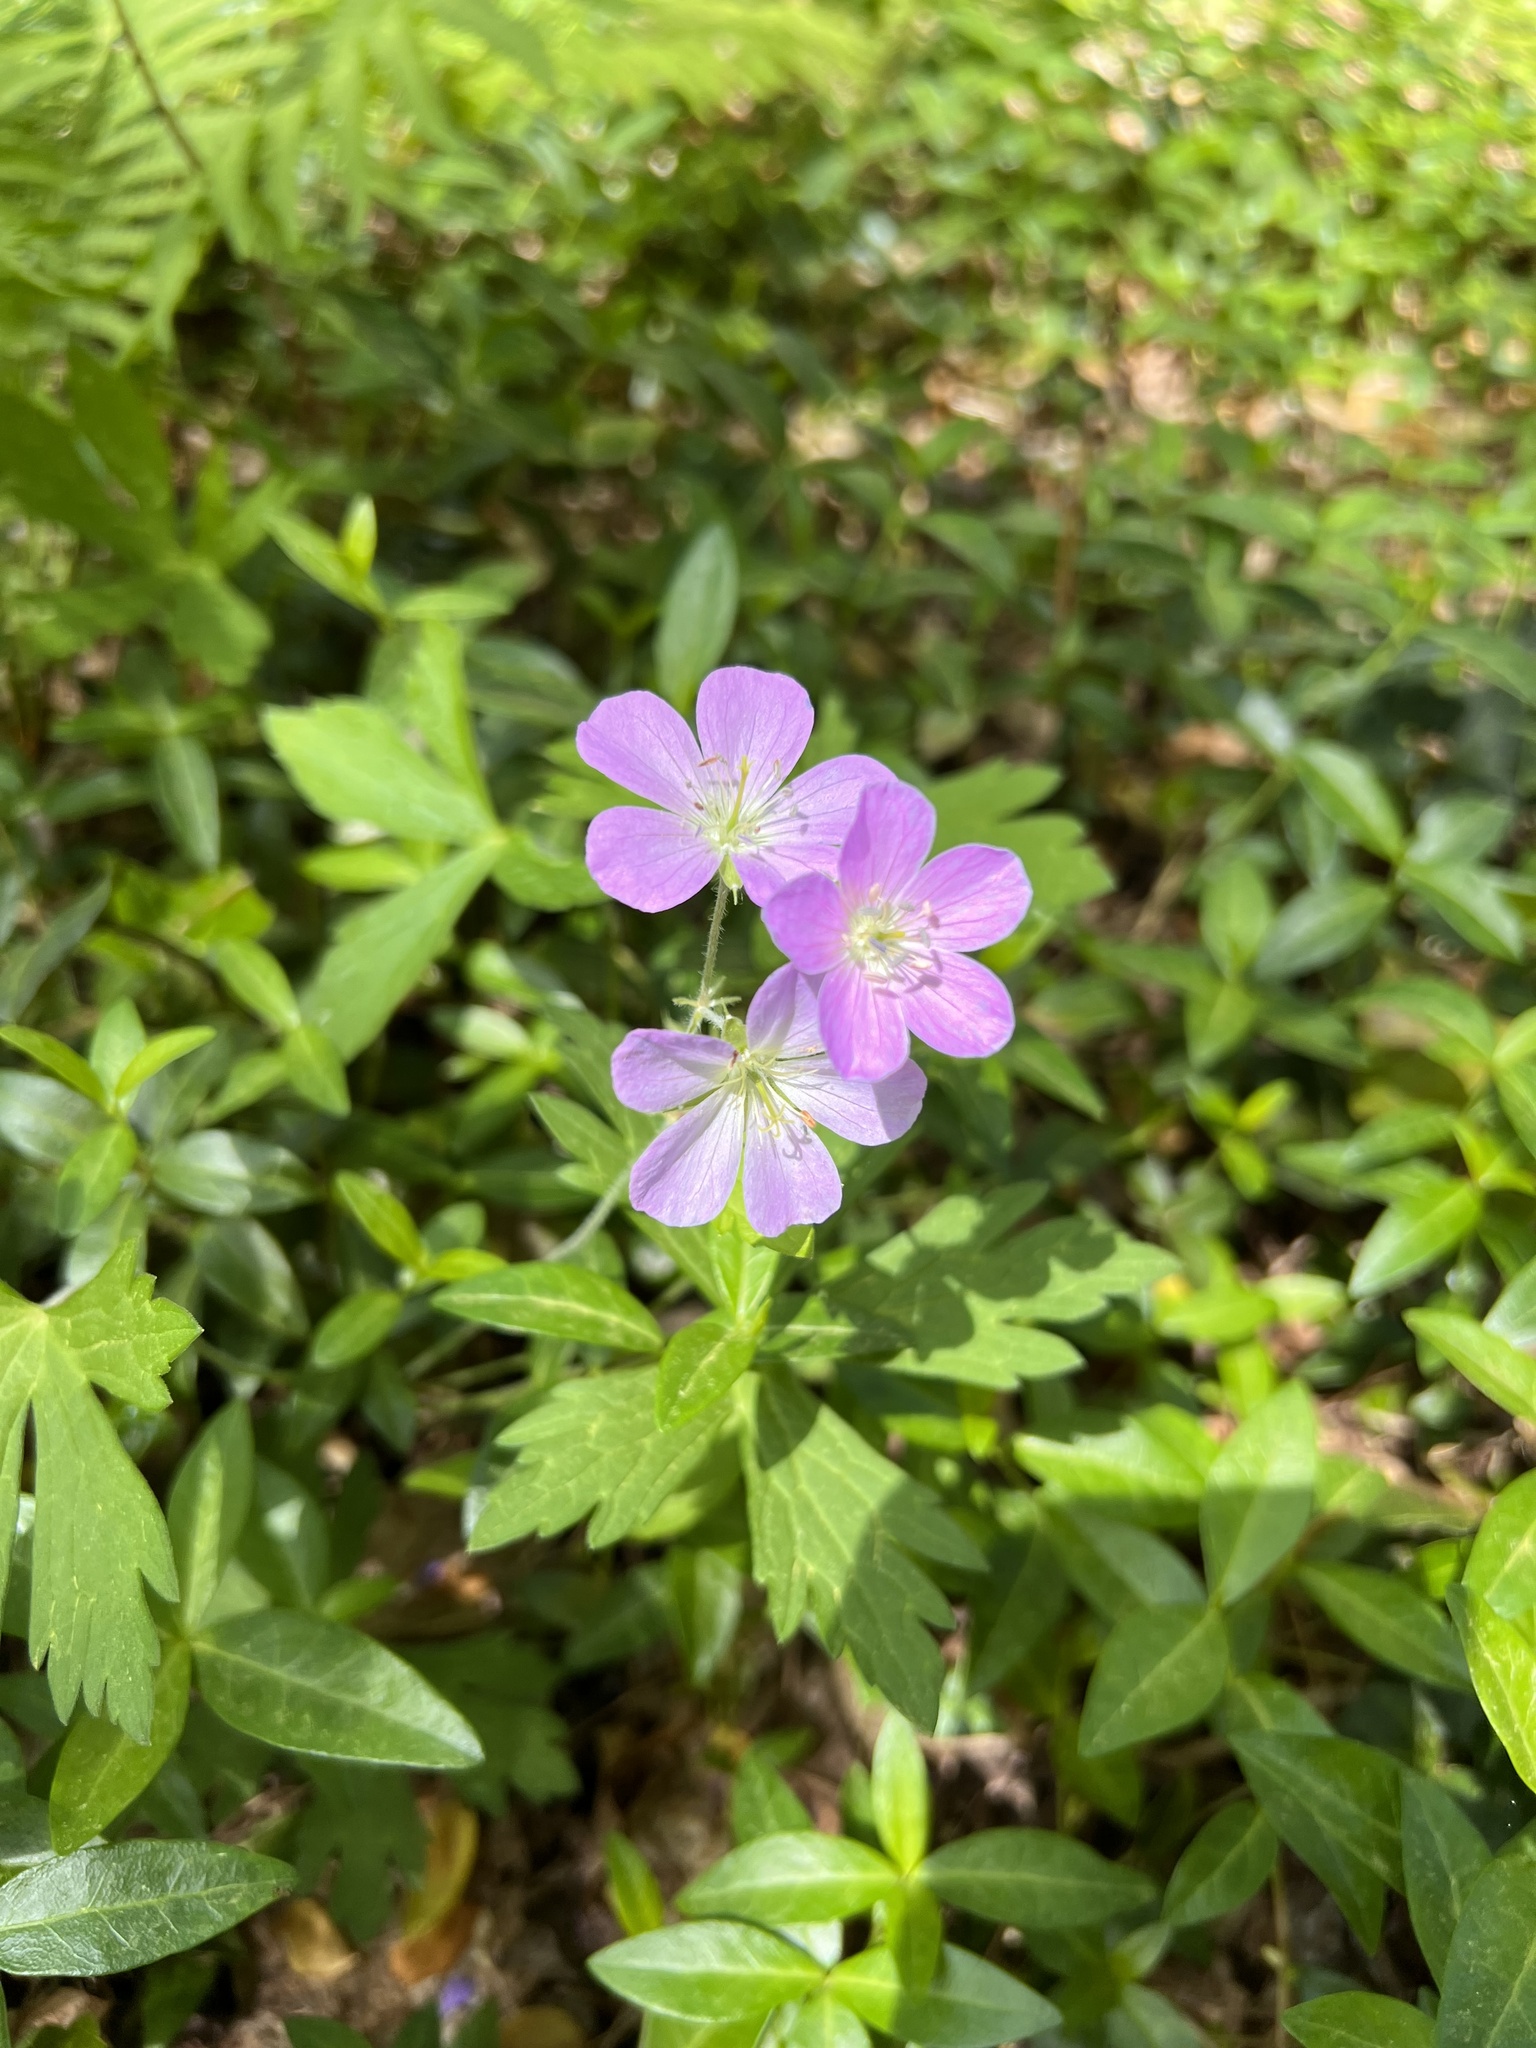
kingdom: Plantae
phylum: Tracheophyta
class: Magnoliopsida
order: Geraniales
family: Geraniaceae
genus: Geranium
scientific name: Geranium maculatum
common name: Spotted geranium
